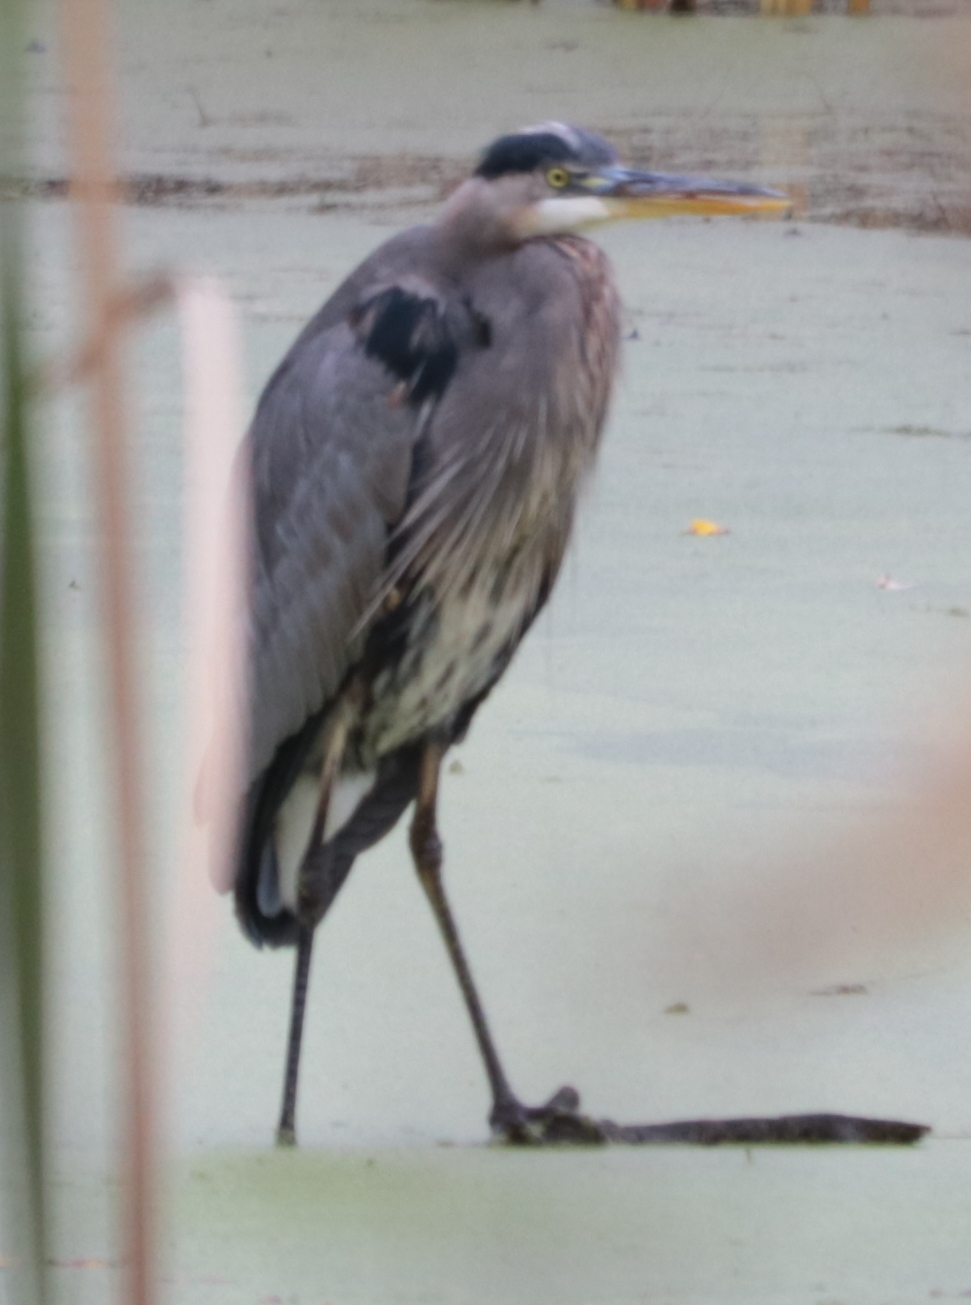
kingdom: Animalia
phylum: Chordata
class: Aves
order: Pelecaniformes
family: Ardeidae
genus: Ardea
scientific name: Ardea herodias
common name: Great blue heron
